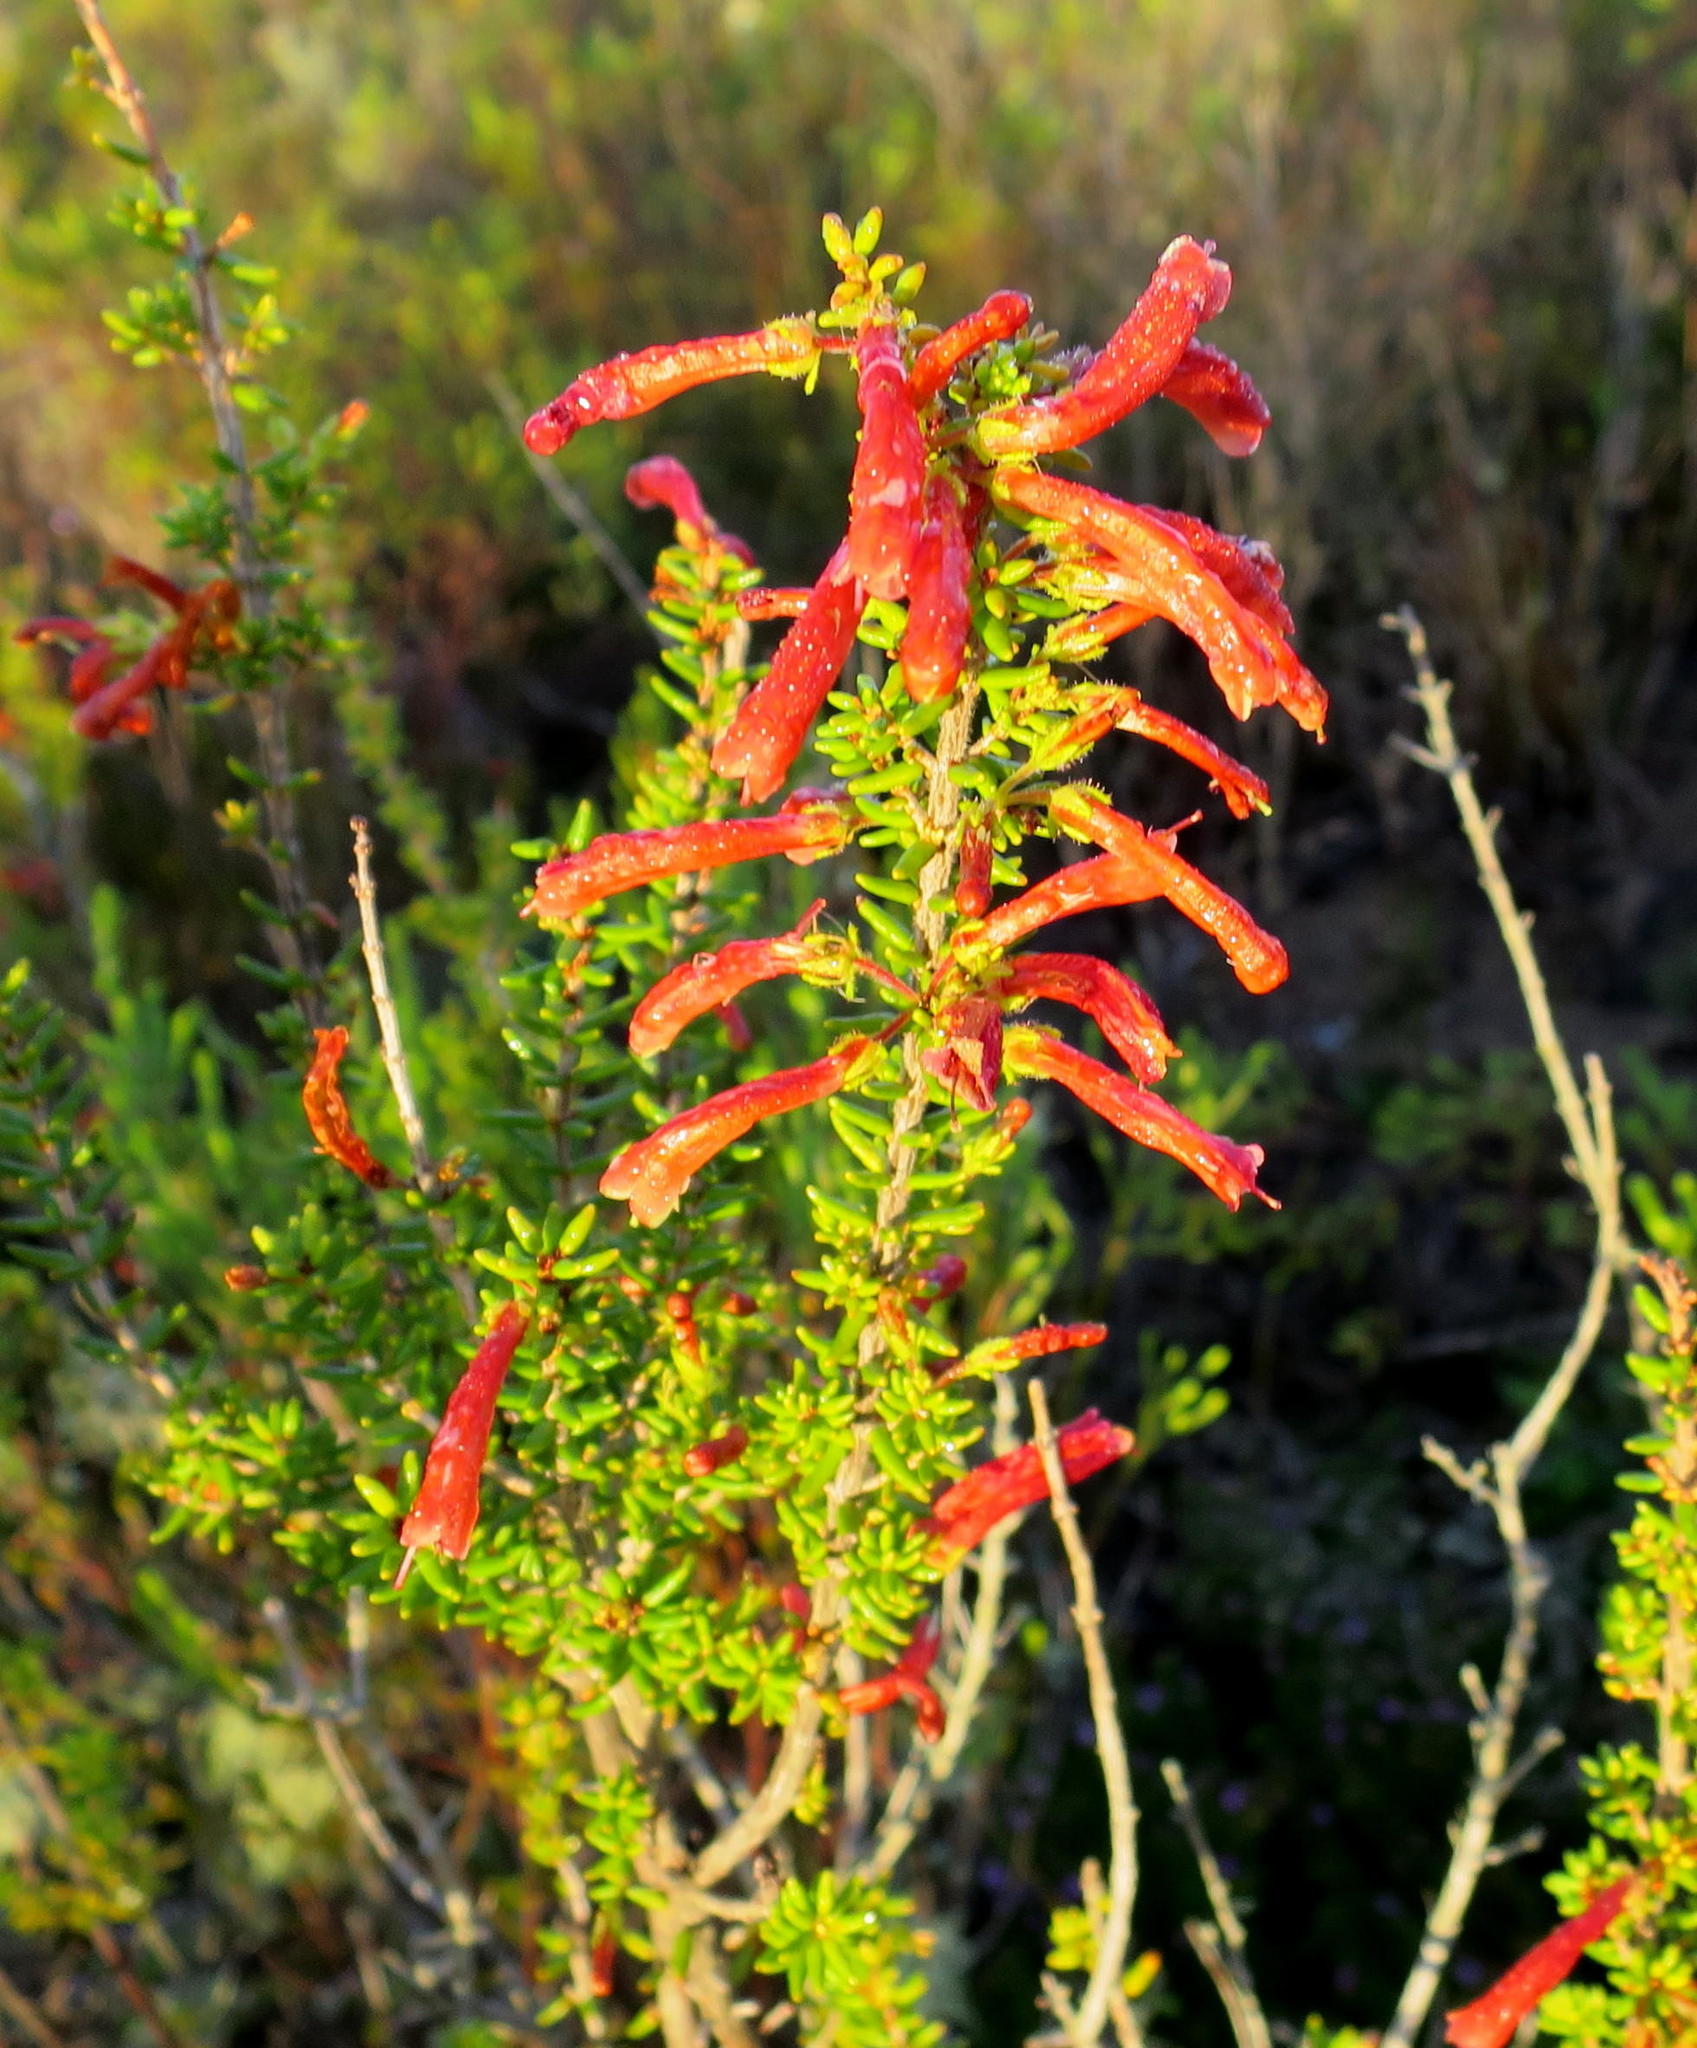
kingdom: Plantae
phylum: Tracheophyta
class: Magnoliopsida
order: Ericales
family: Ericaceae
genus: Erica
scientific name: Erica glandulosa
